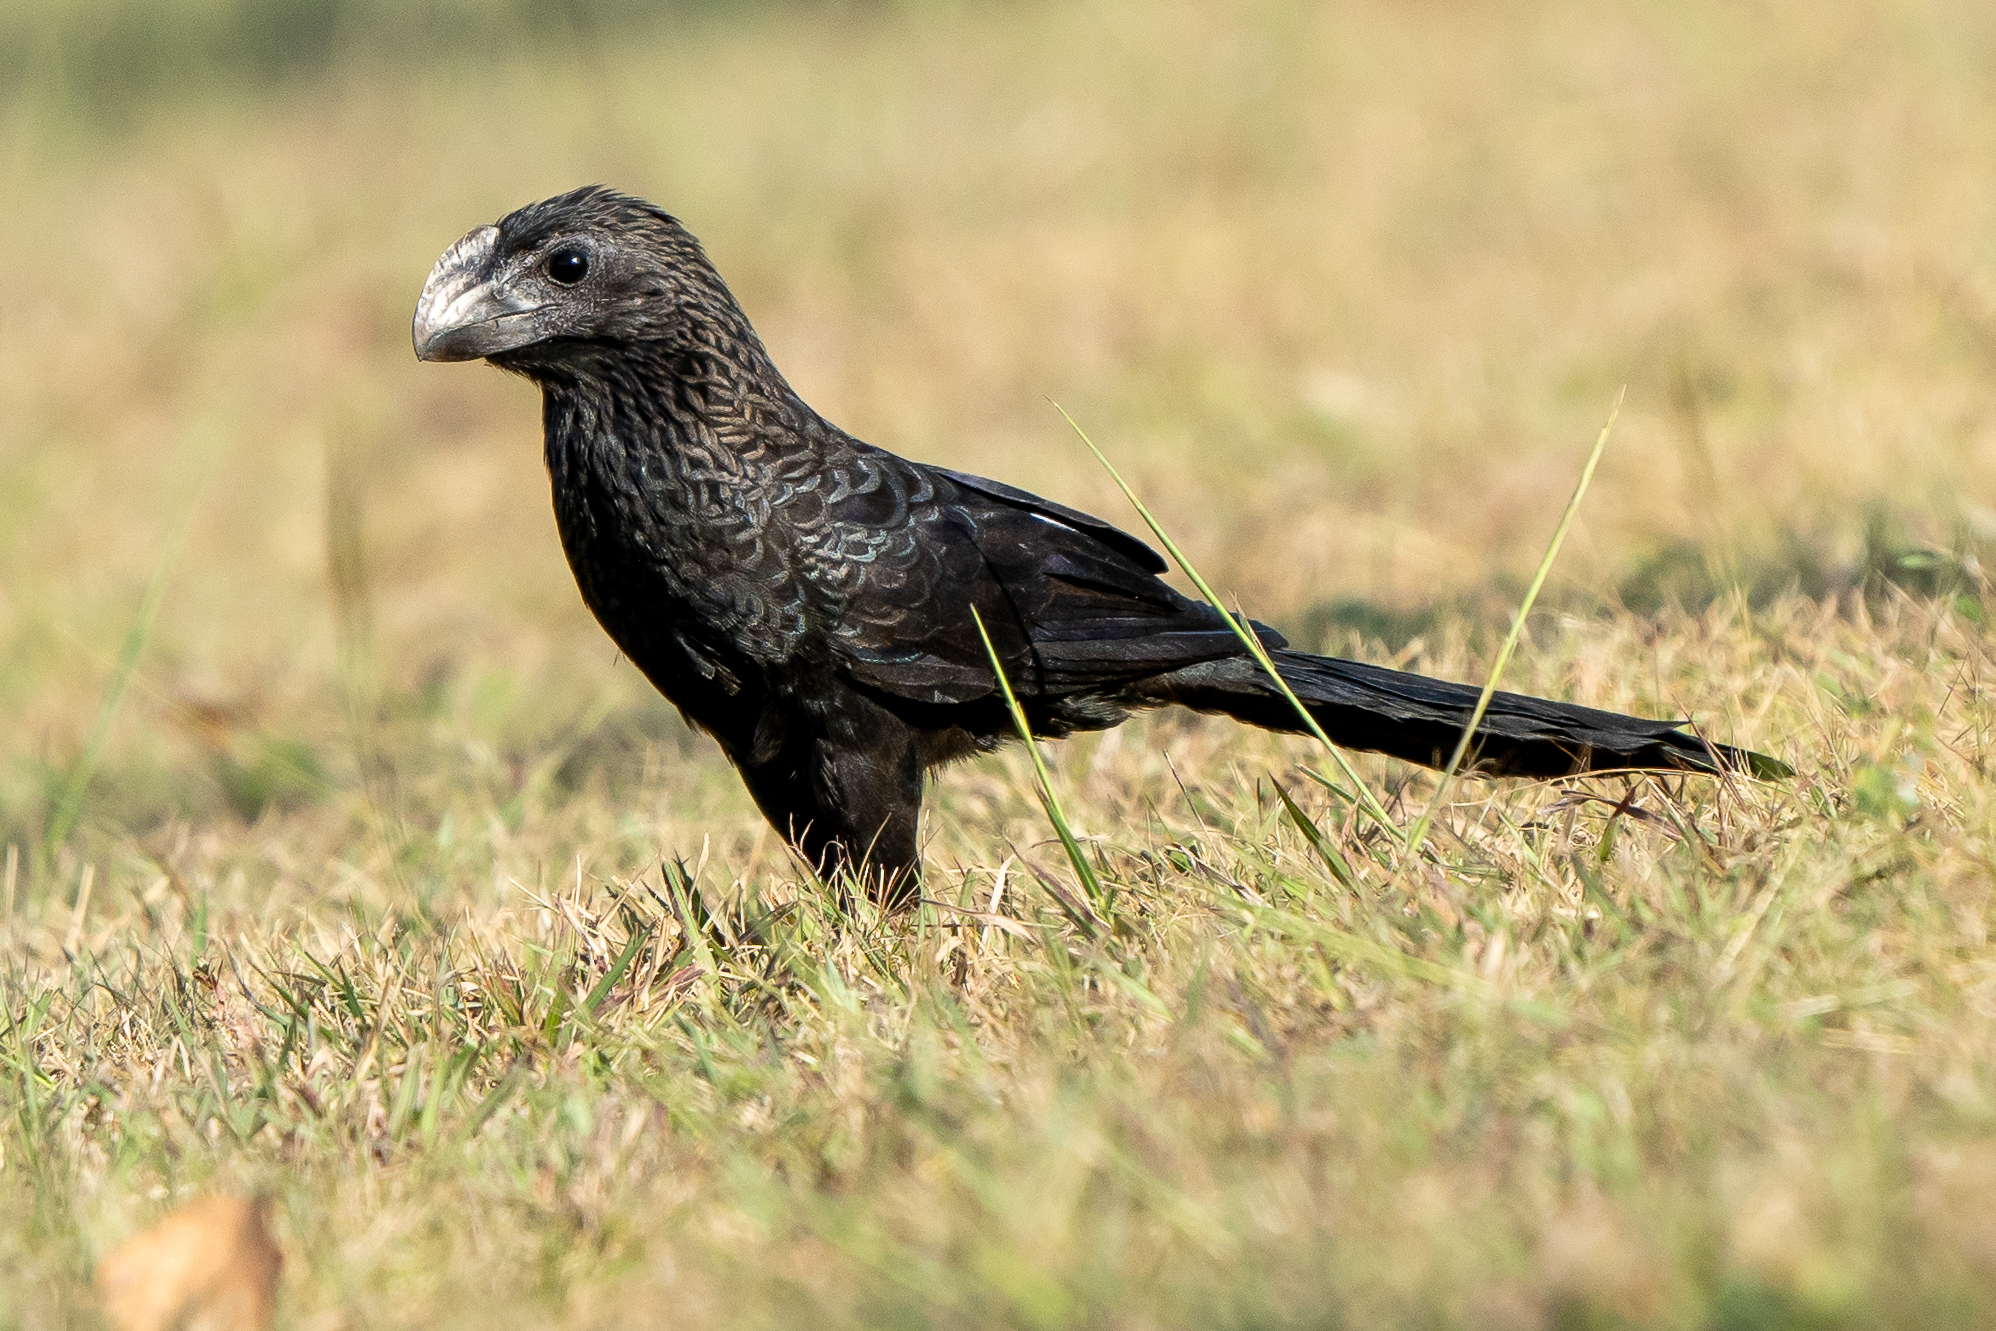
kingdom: Animalia
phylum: Chordata
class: Aves
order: Cuculiformes
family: Cuculidae
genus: Crotophaga
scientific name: Crotophaga ani
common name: Smooth-billed ani
